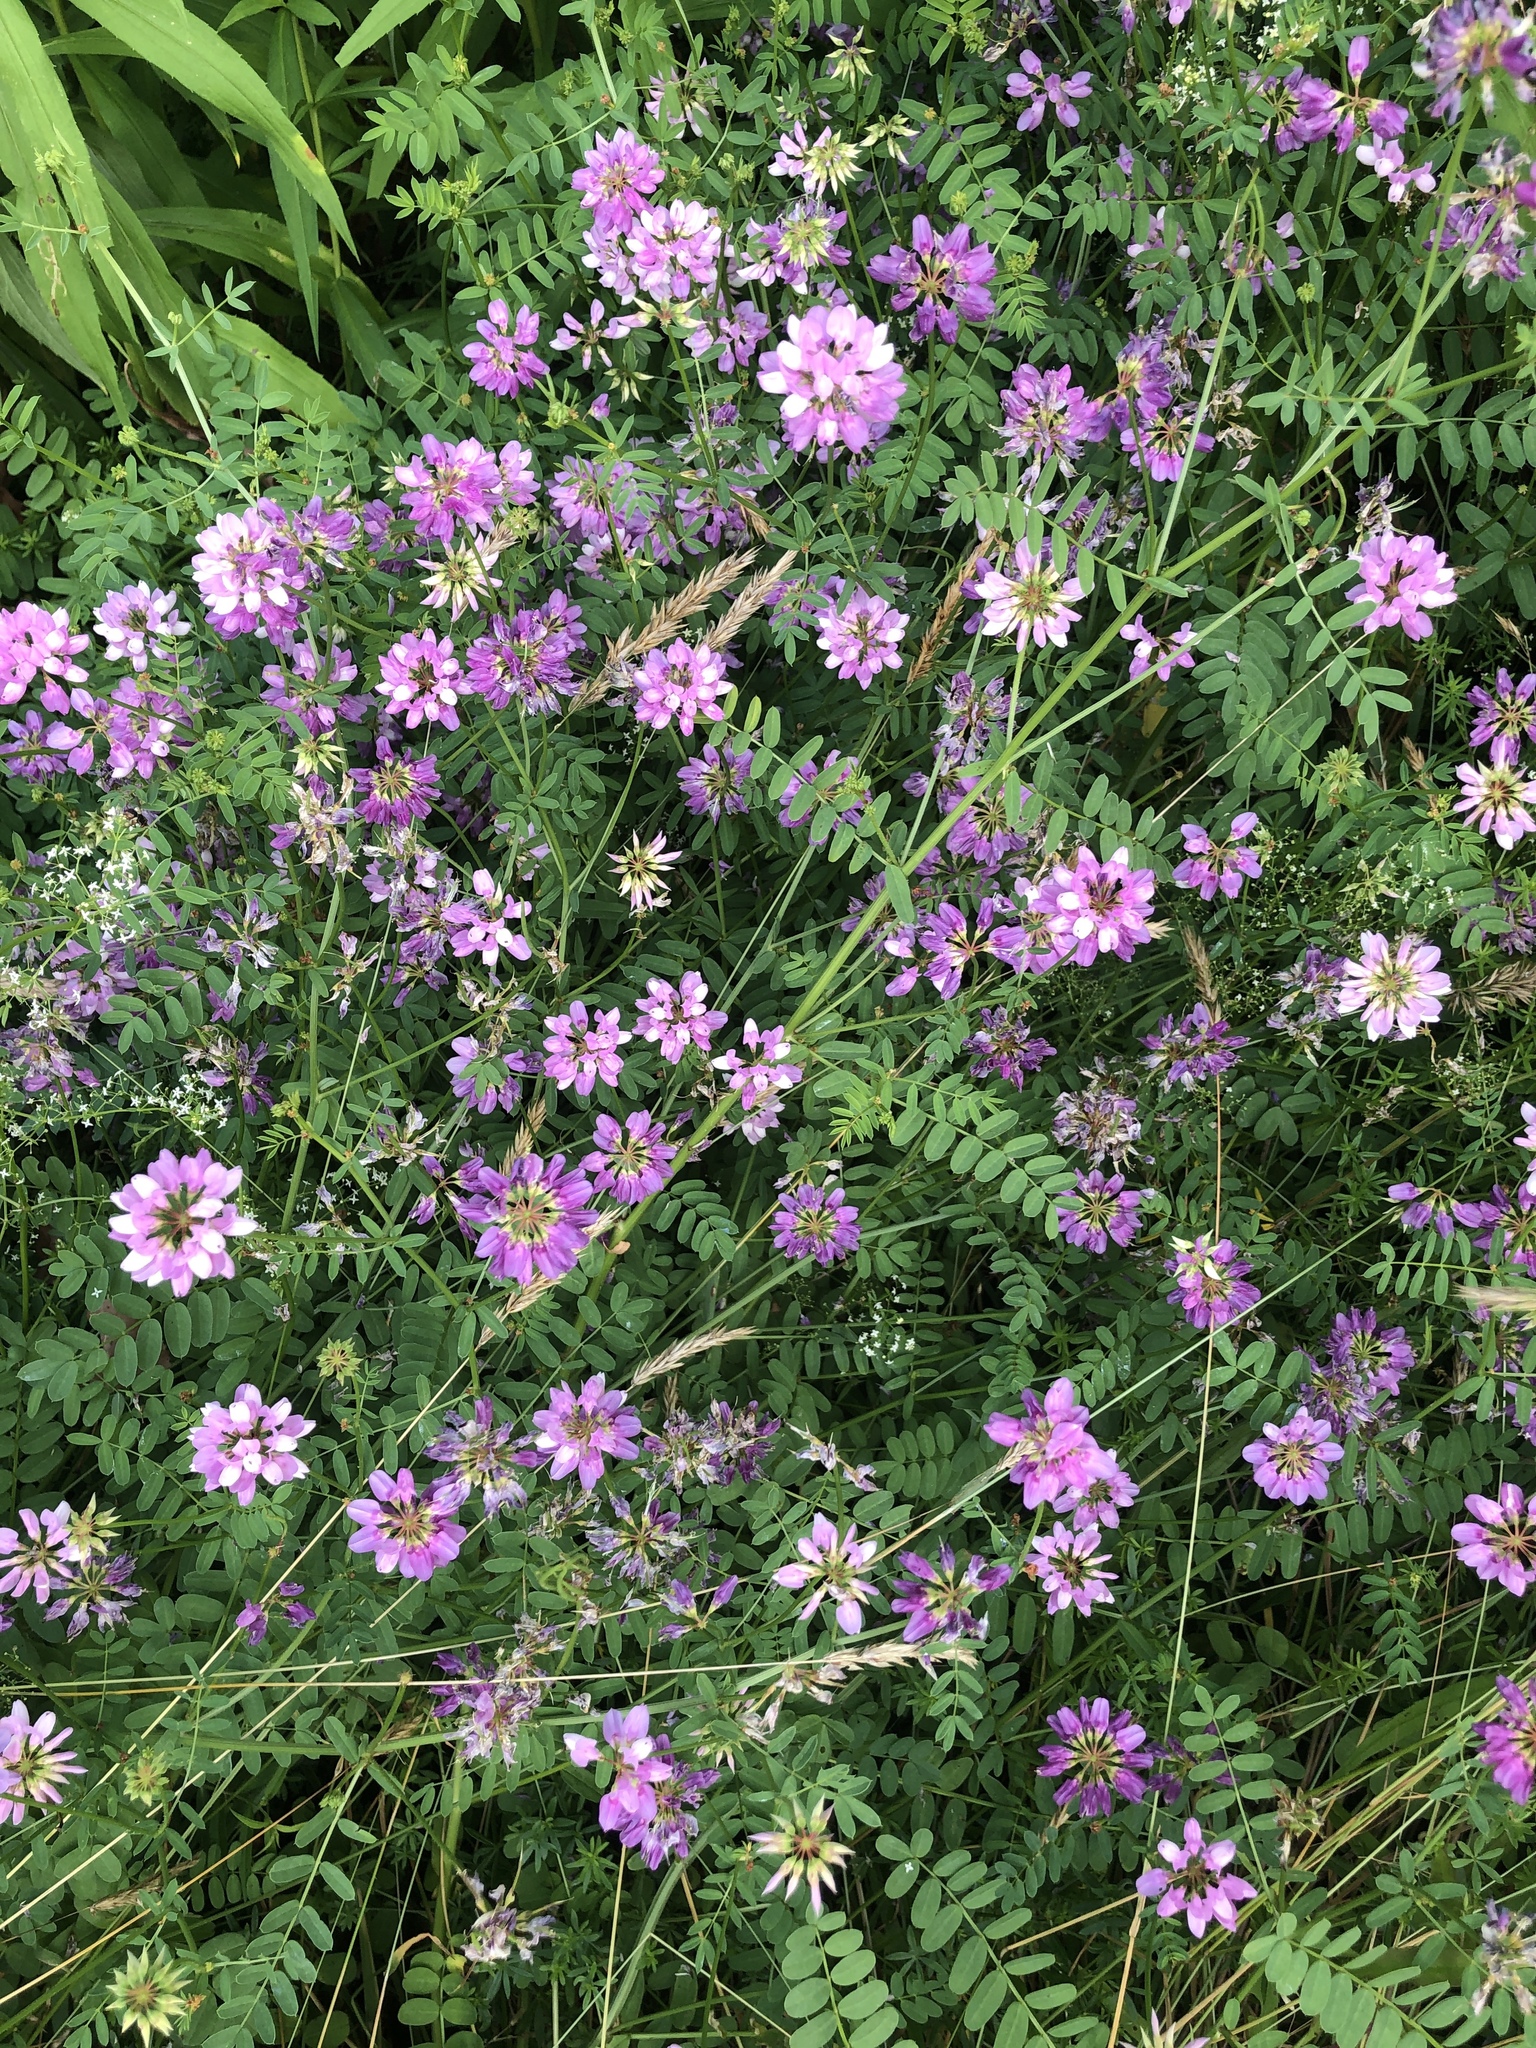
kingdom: Plantae
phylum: Tracheophyta
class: Magnoliopsida
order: Fabales
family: Fabaceae
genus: Coronilla
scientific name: Coronilla varia
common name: Crownvetch
